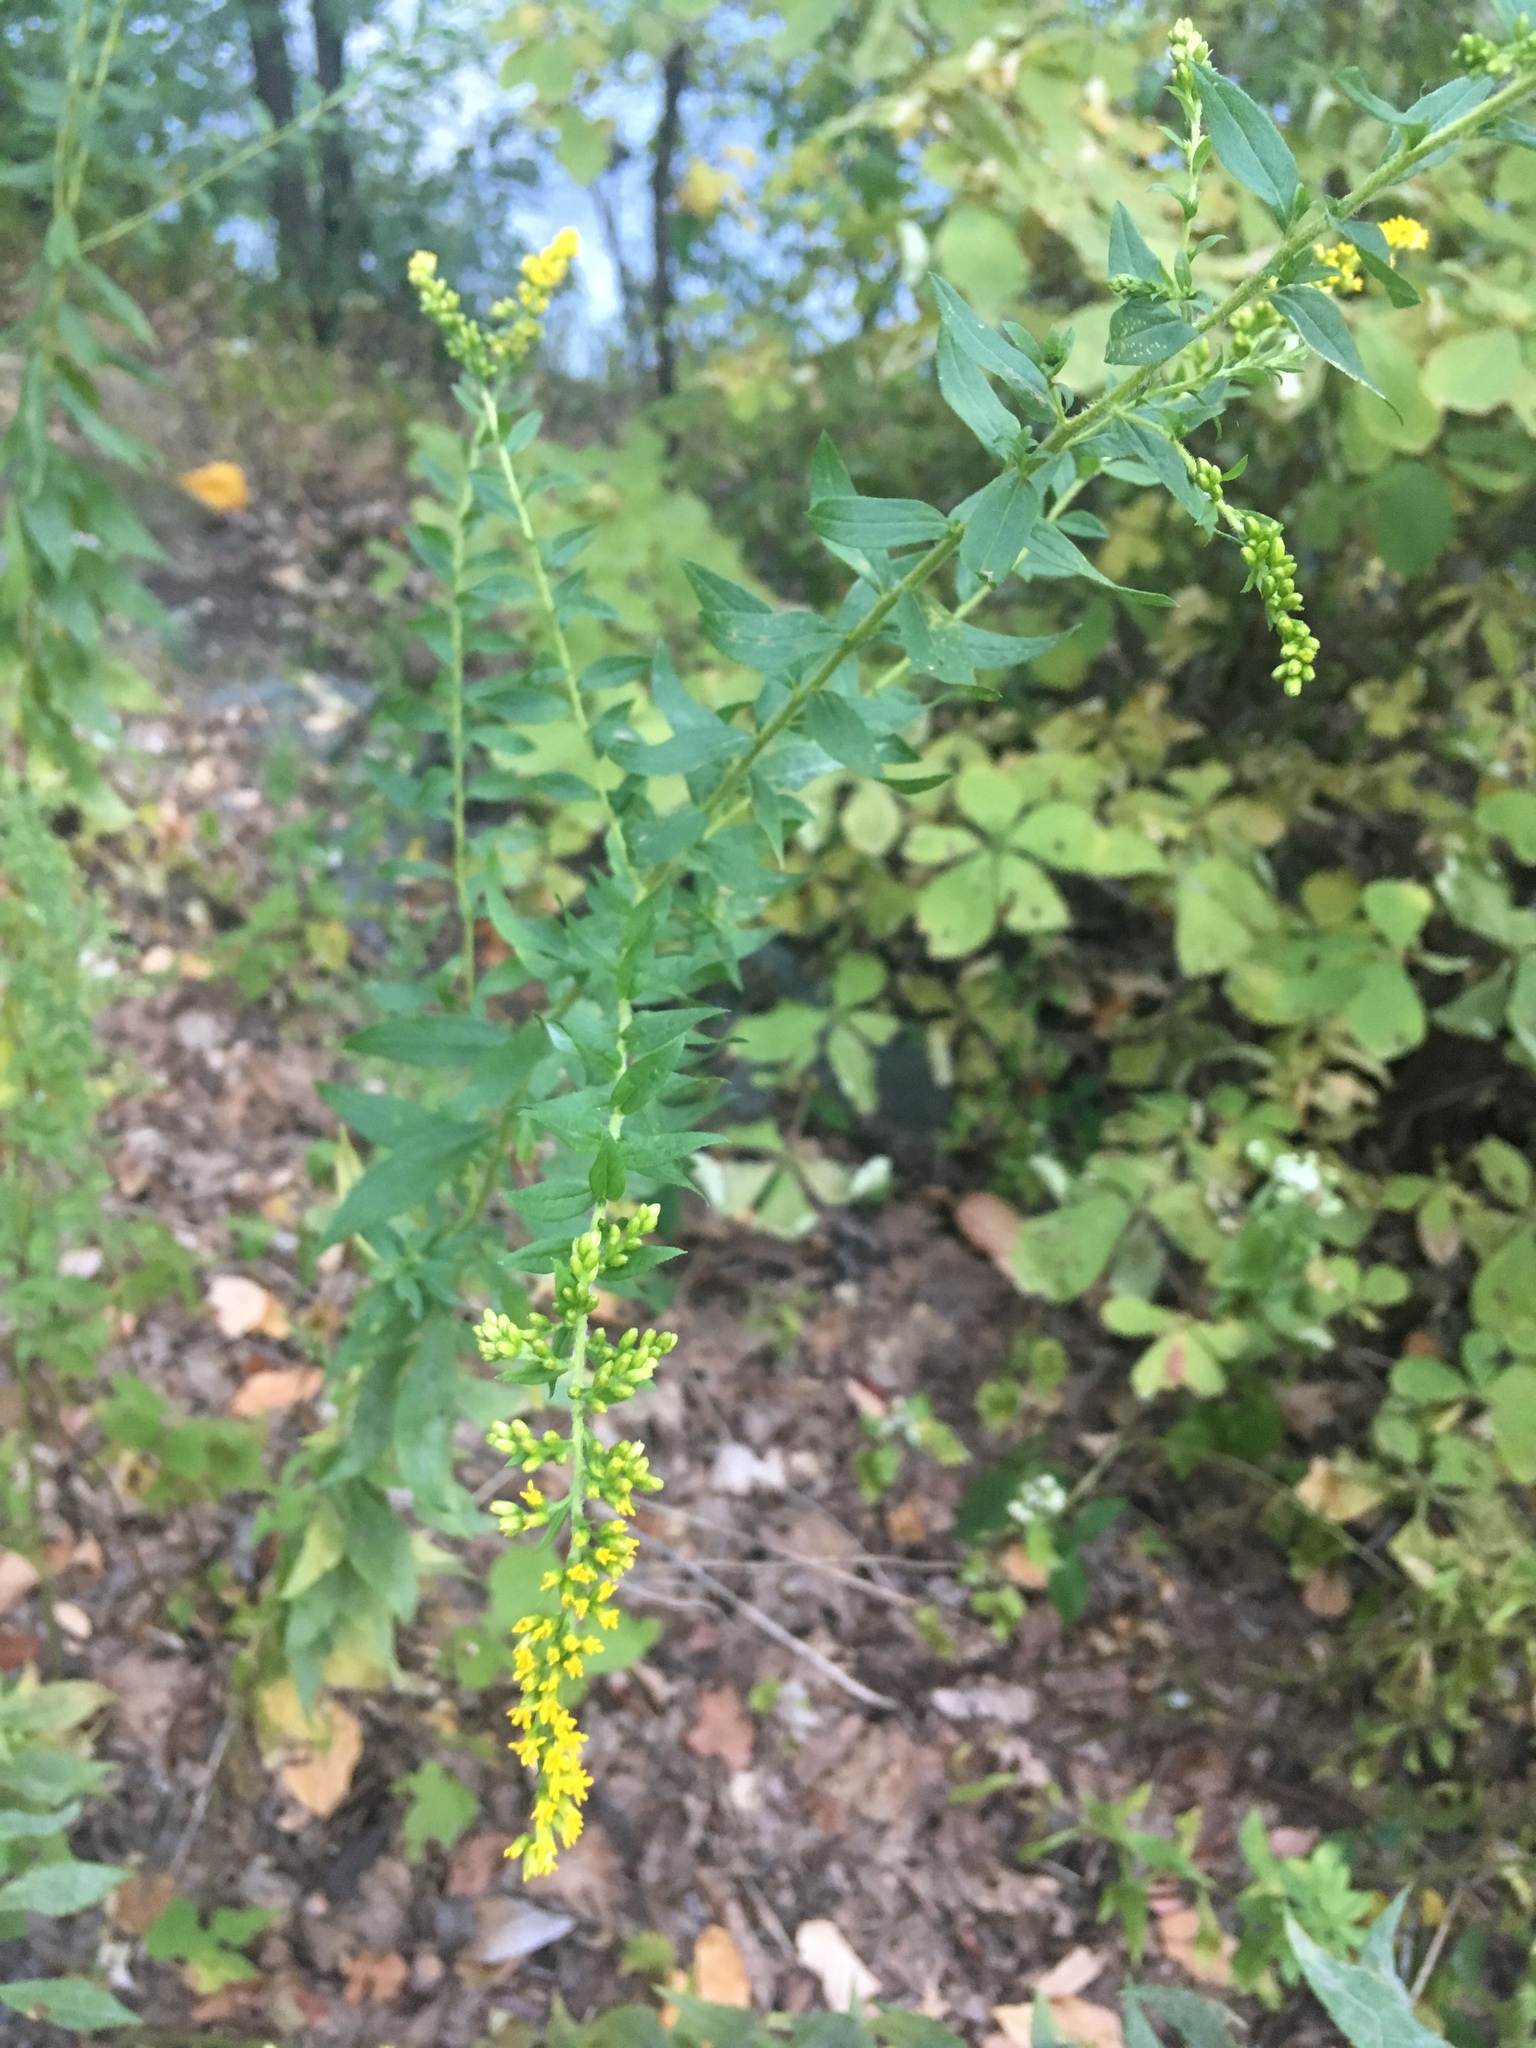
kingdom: Plantae
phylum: Tracheophyta
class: Magnoliopsida
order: Asterales
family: Asteraceae
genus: Solidago
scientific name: Solidago rugosa
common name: Rough-stemmed goldenrod
